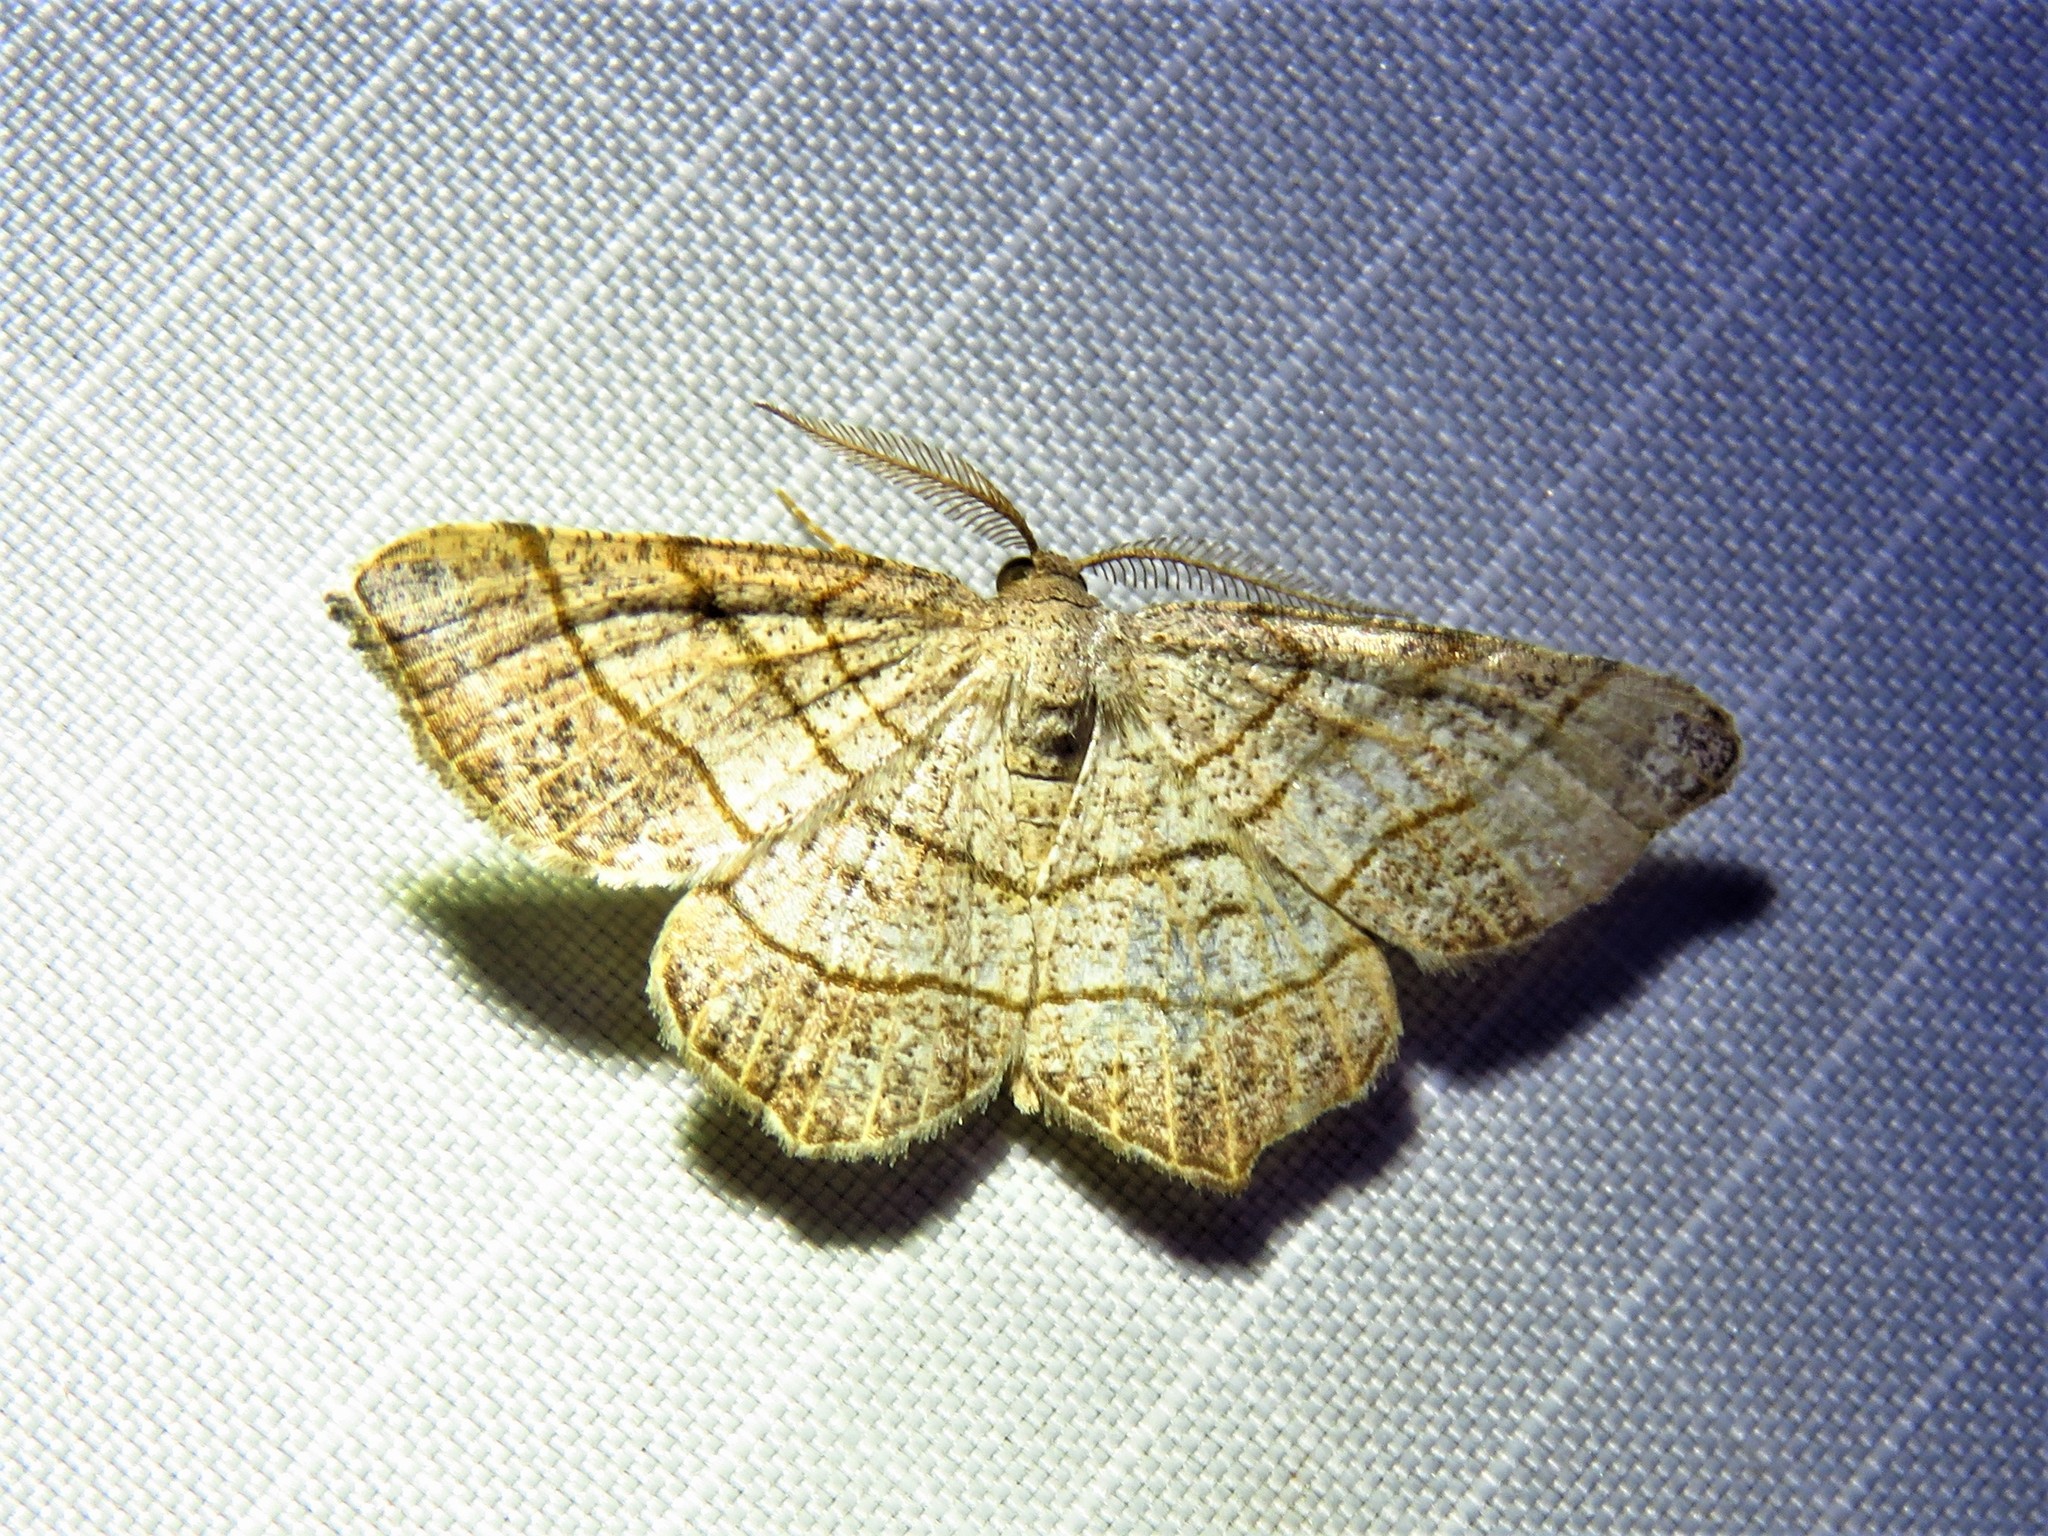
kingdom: Animalia
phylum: Arthropoda
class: Insecta
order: Lepidoptera
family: Geometridae
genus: Eumacaria
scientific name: Eumacaria madopata
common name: Brown-bordered geometer
